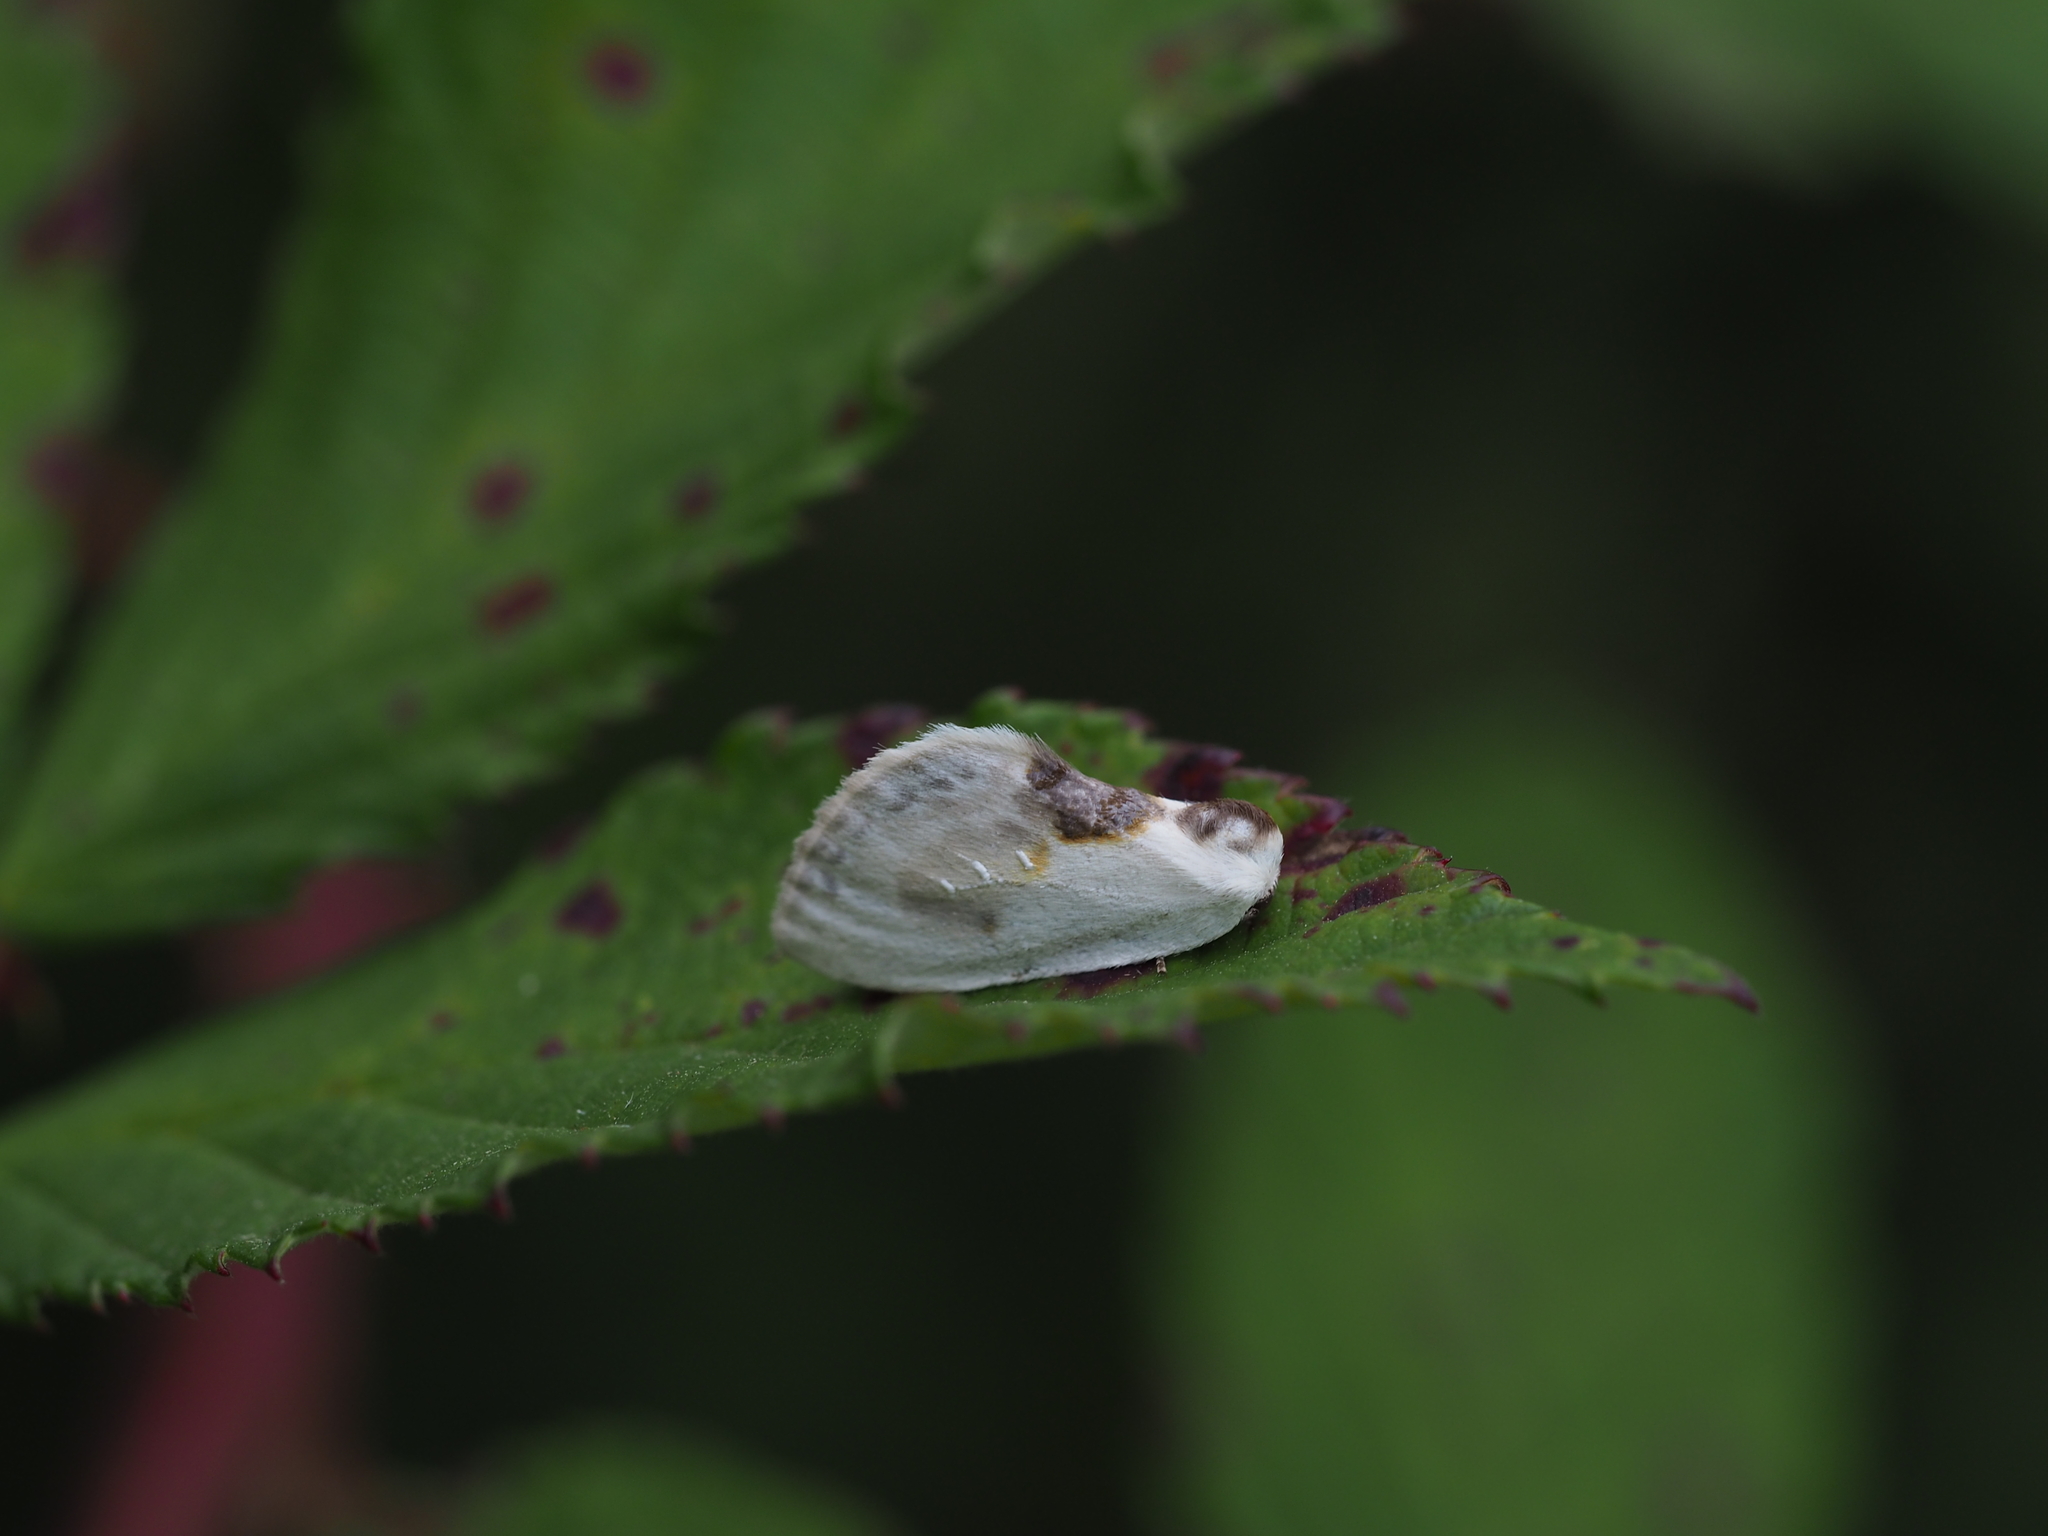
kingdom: Animalia
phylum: Arthropoda
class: Insecta
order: Lepidoptera
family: Drepanidae
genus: Cilix
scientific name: Cilix glaucata
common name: Chinese character
